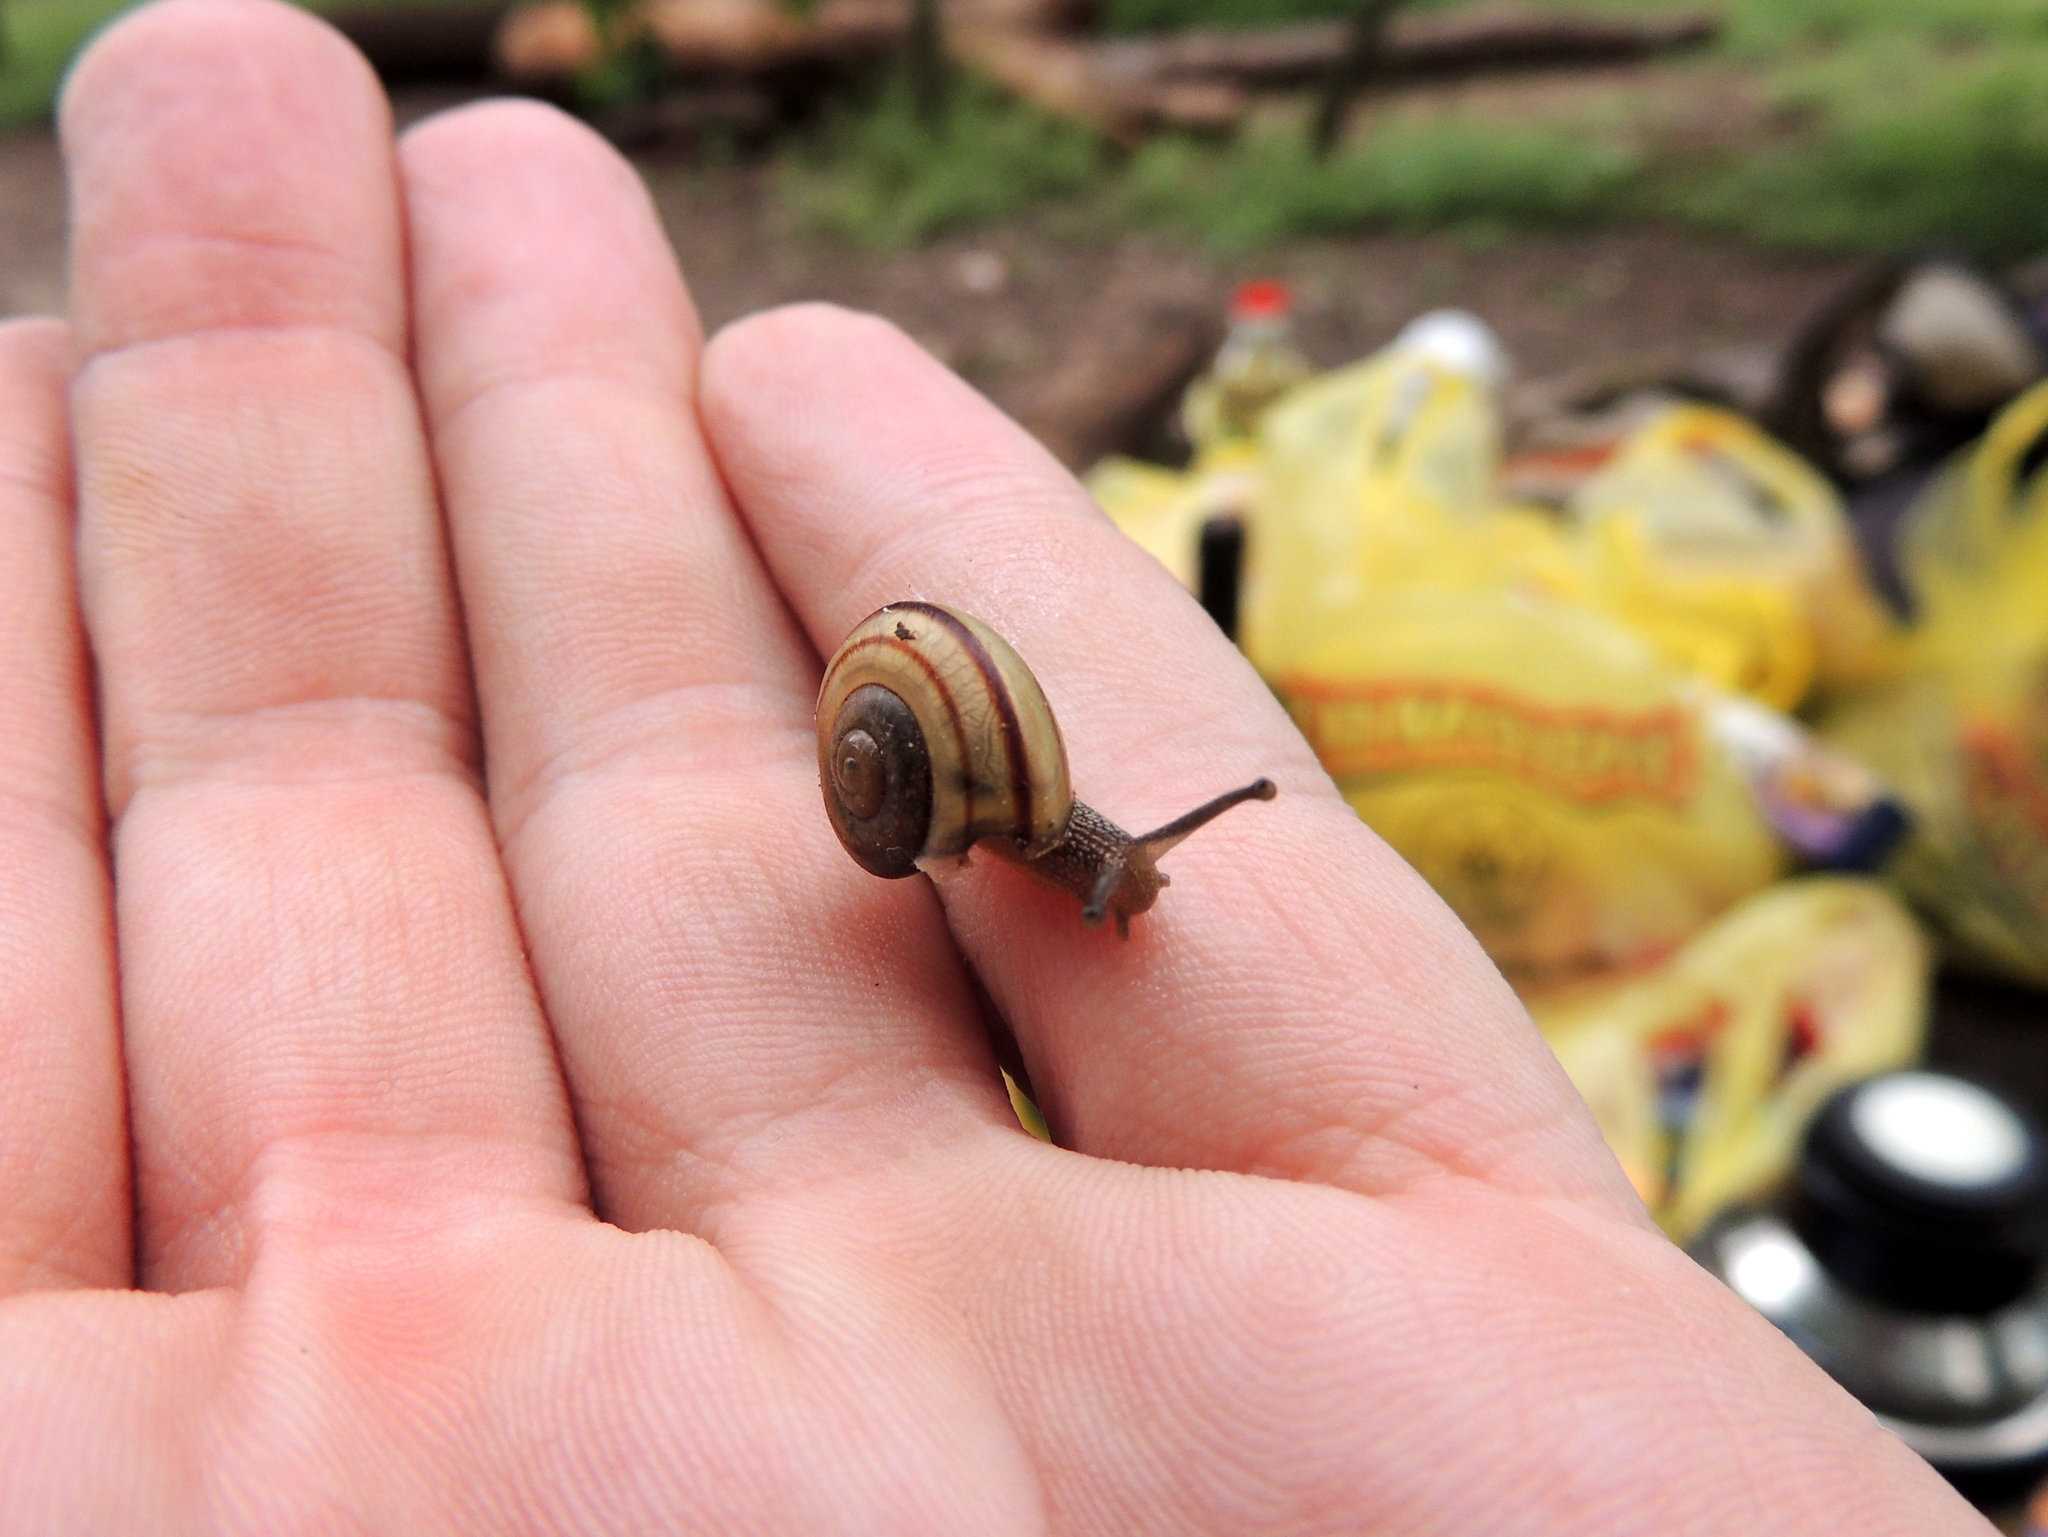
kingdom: Animalia
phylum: Mollusca
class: Gastropoda
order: Stylommatophora
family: Epiphragmophoridae
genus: Epiphragmophora
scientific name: Epiphragmophora
